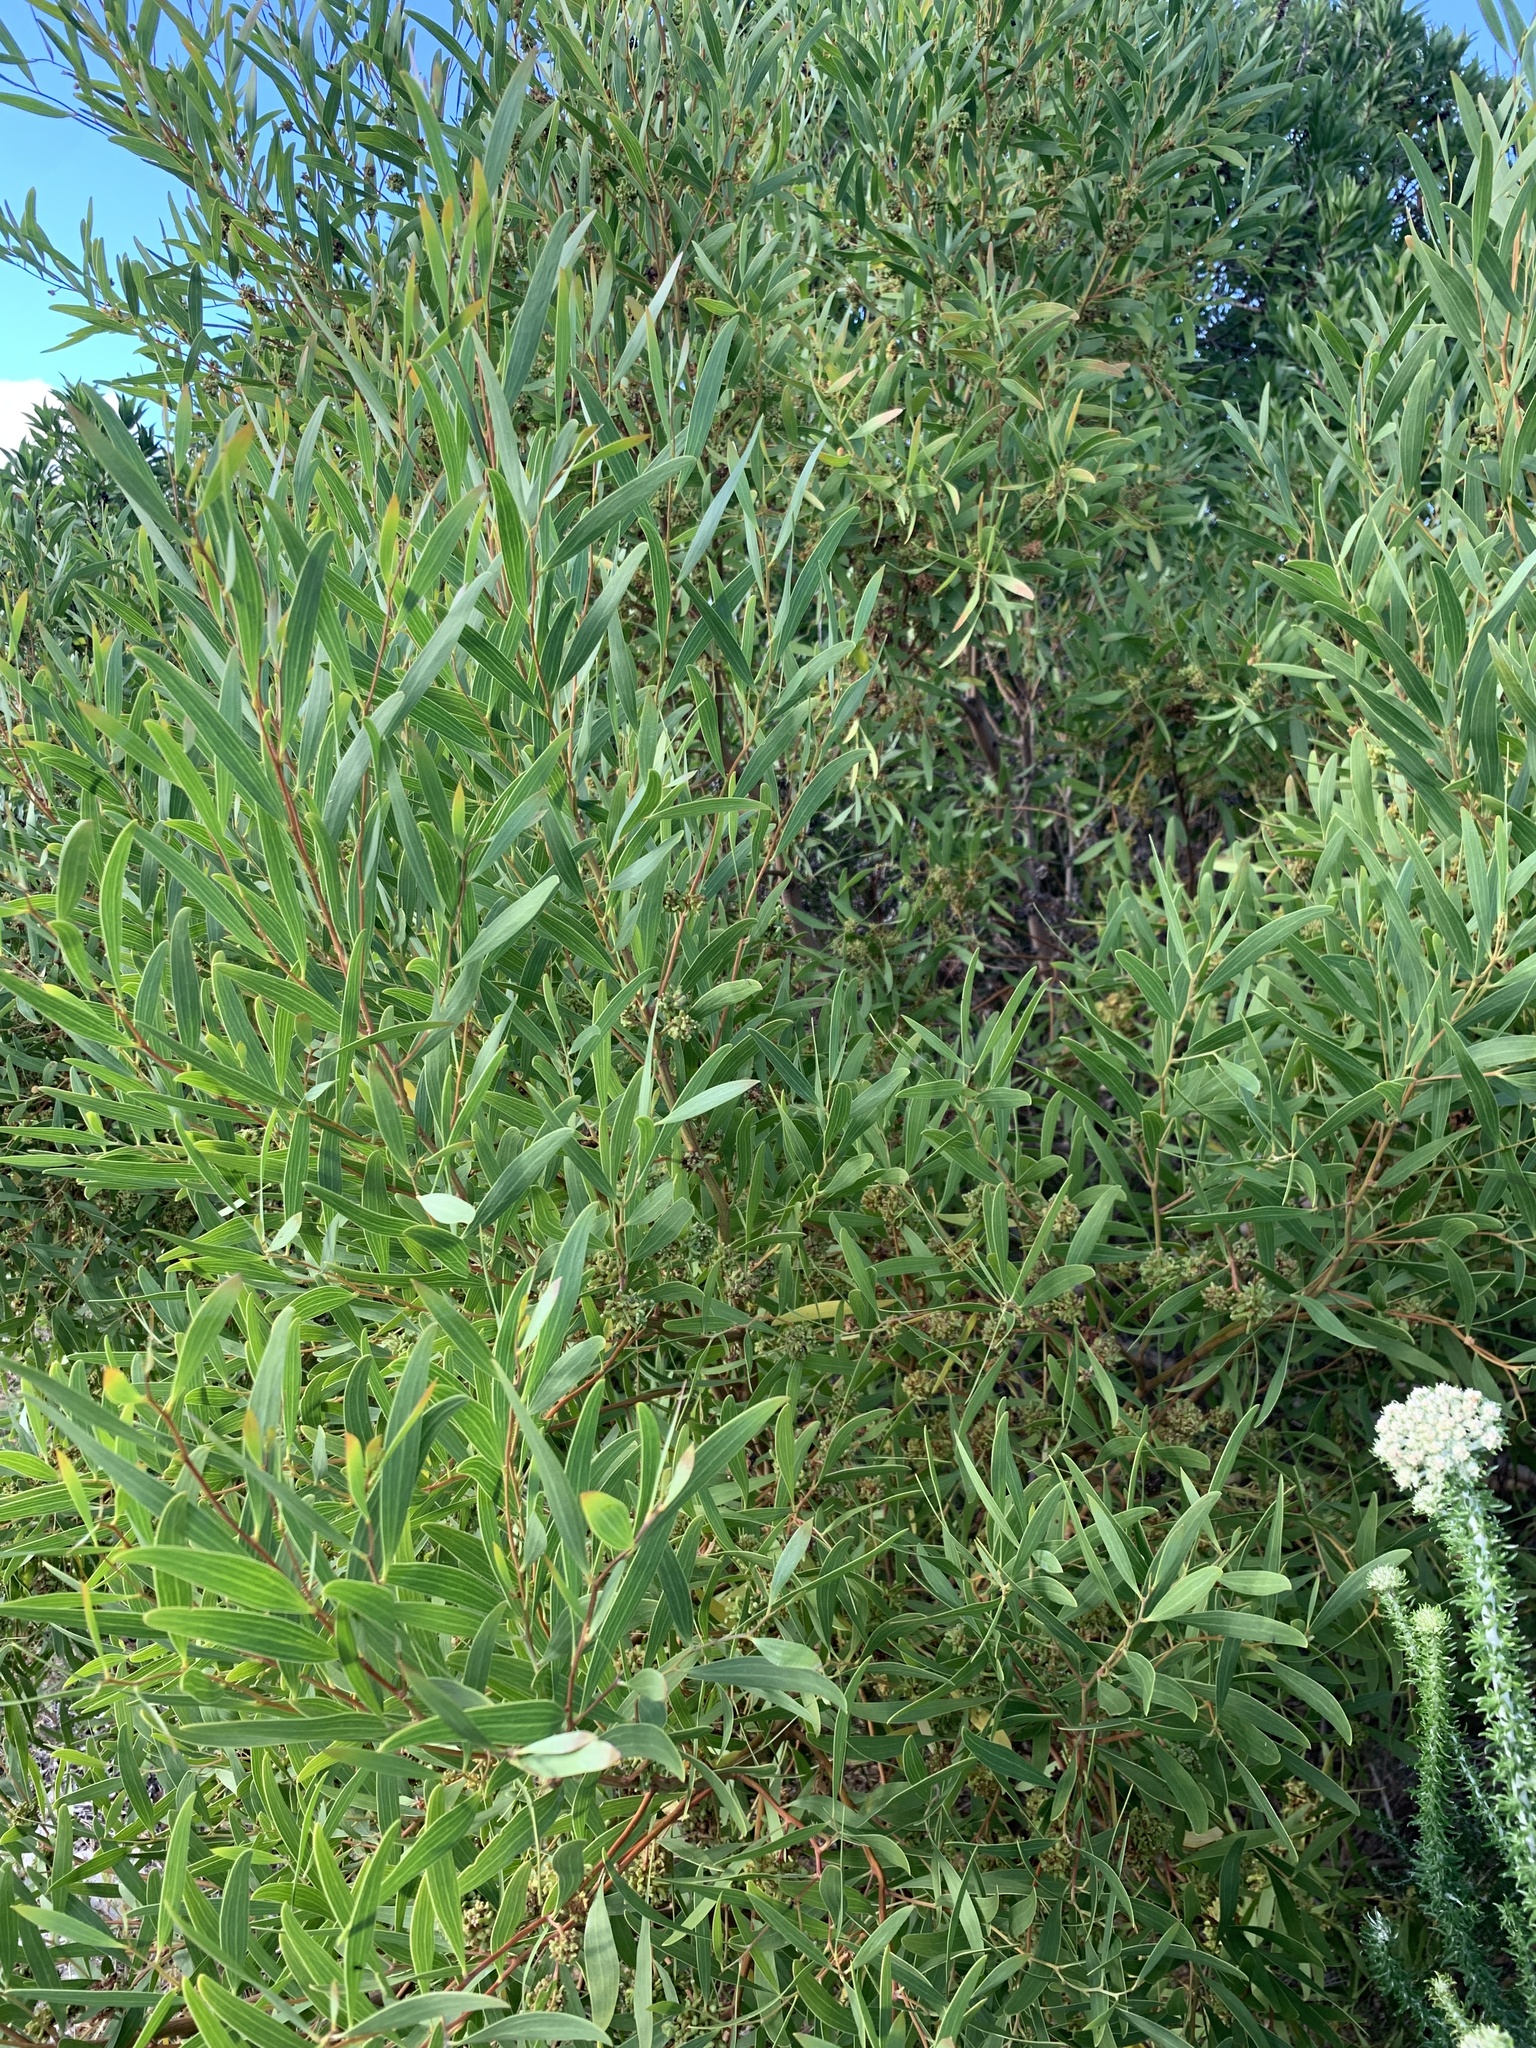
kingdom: Plantae
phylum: Tracheophyta
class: Magnoliopsida
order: Fabales
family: Fabaceae
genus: Acacia
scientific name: Acacia cyclops
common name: Coastal wattle
